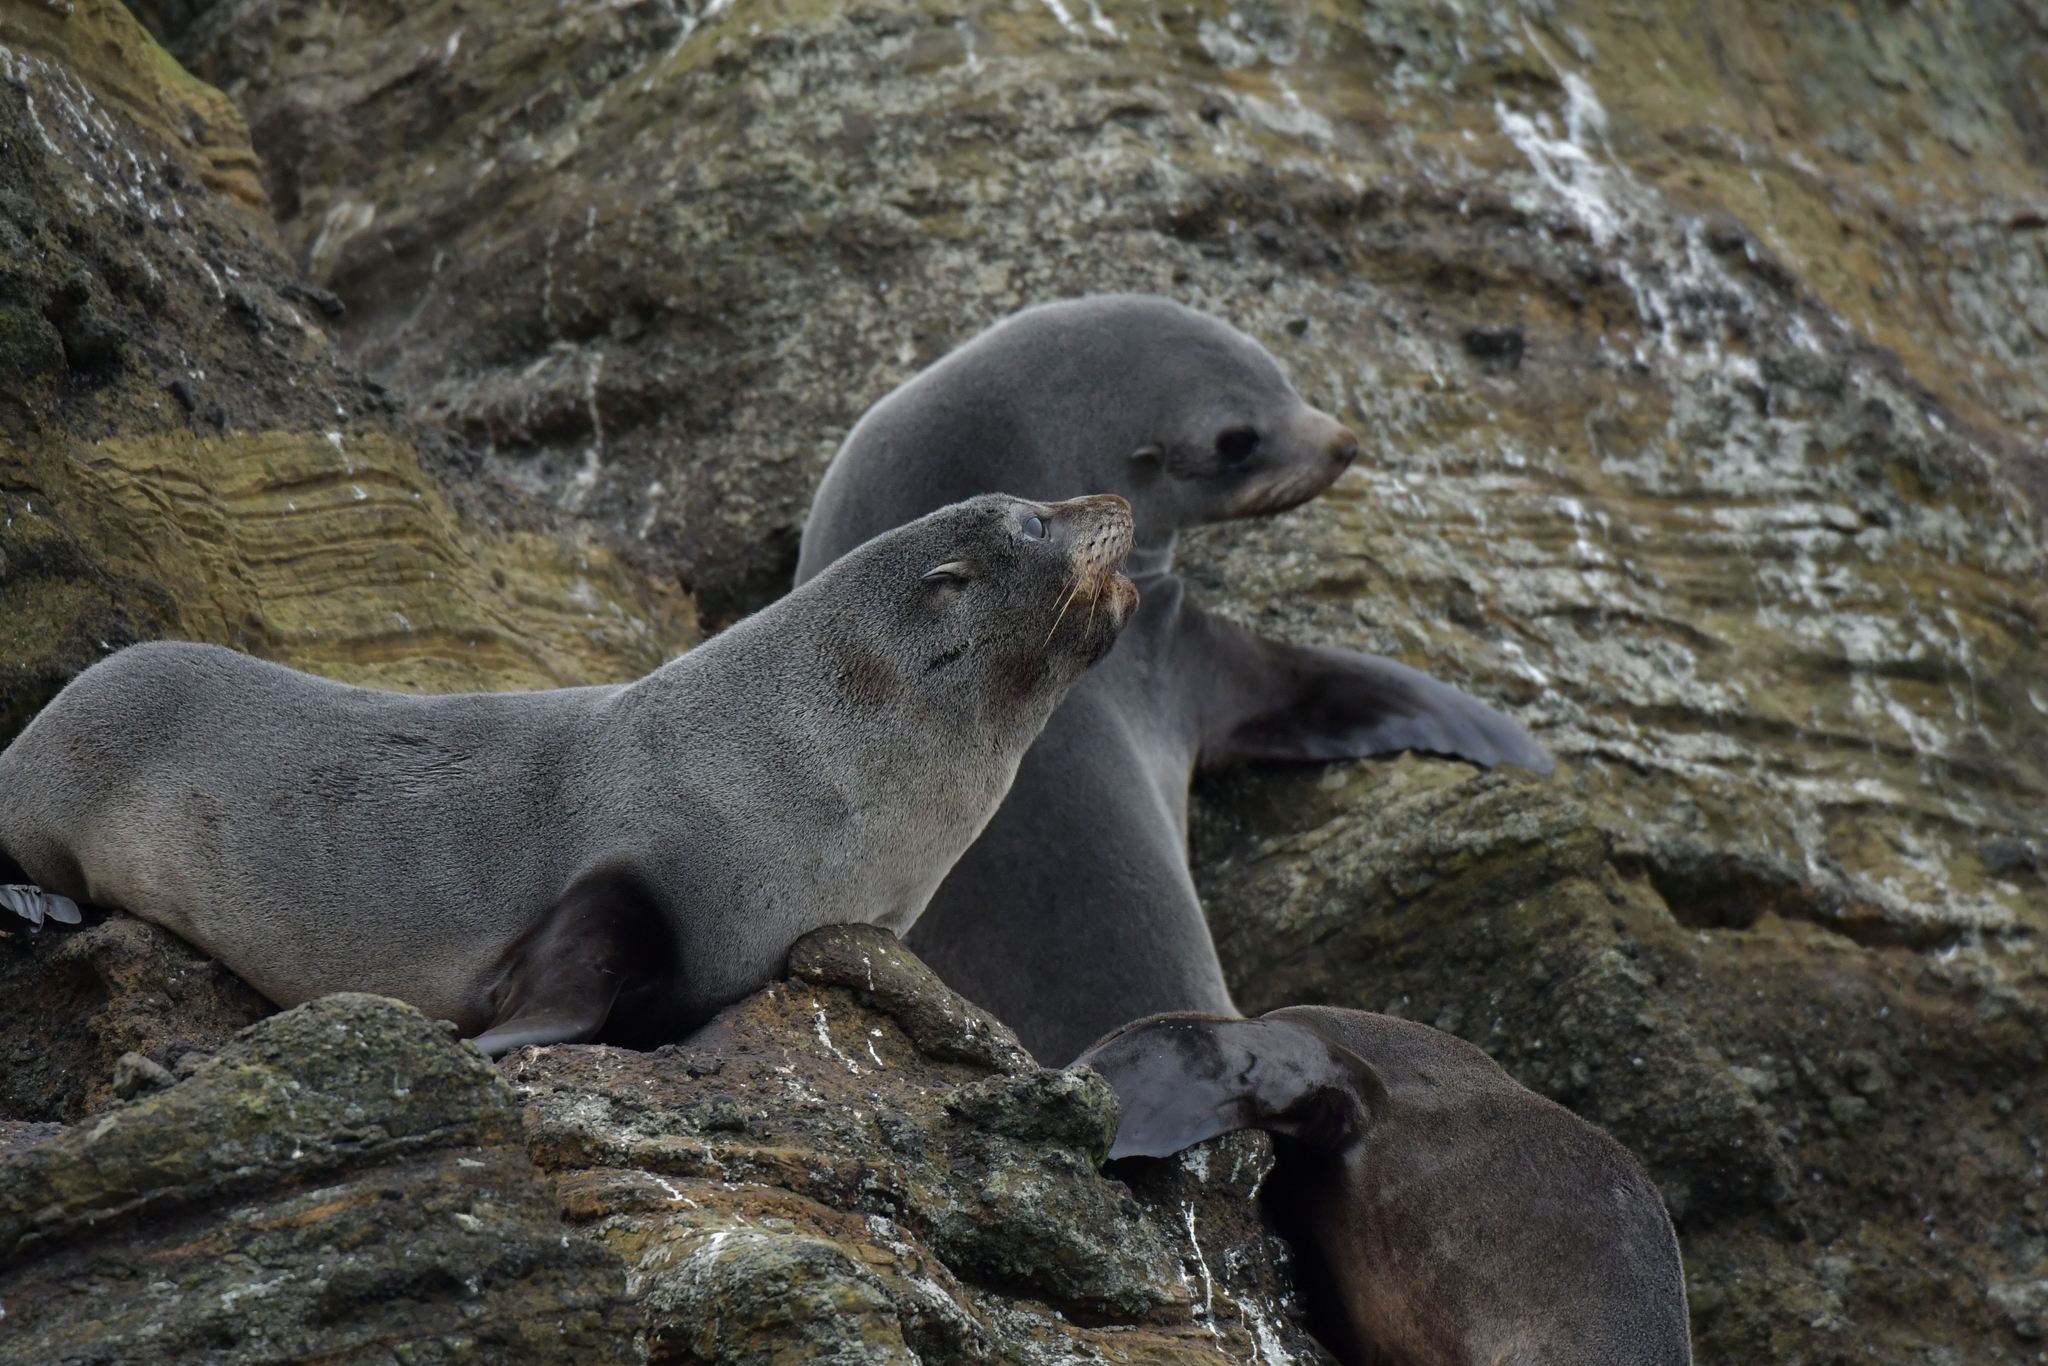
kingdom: Animalia
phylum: Chordata
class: Mammalia
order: Carnivora
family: Otariidae
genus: Arctocephalus
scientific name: Arctocephalus forsteri
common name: New zealand fur seal
